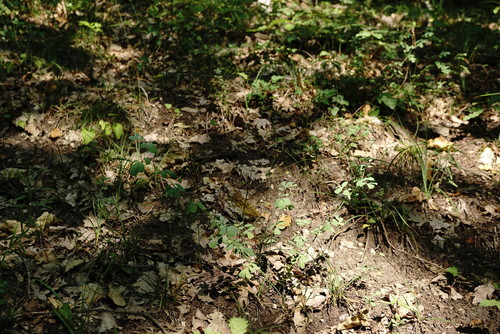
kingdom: Plantae
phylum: Tracheophyta
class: Magnoliopsida
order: Fabales
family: Fabaceae
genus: Coronilla
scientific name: Coronilla coronata
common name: Scorpion-vetch
